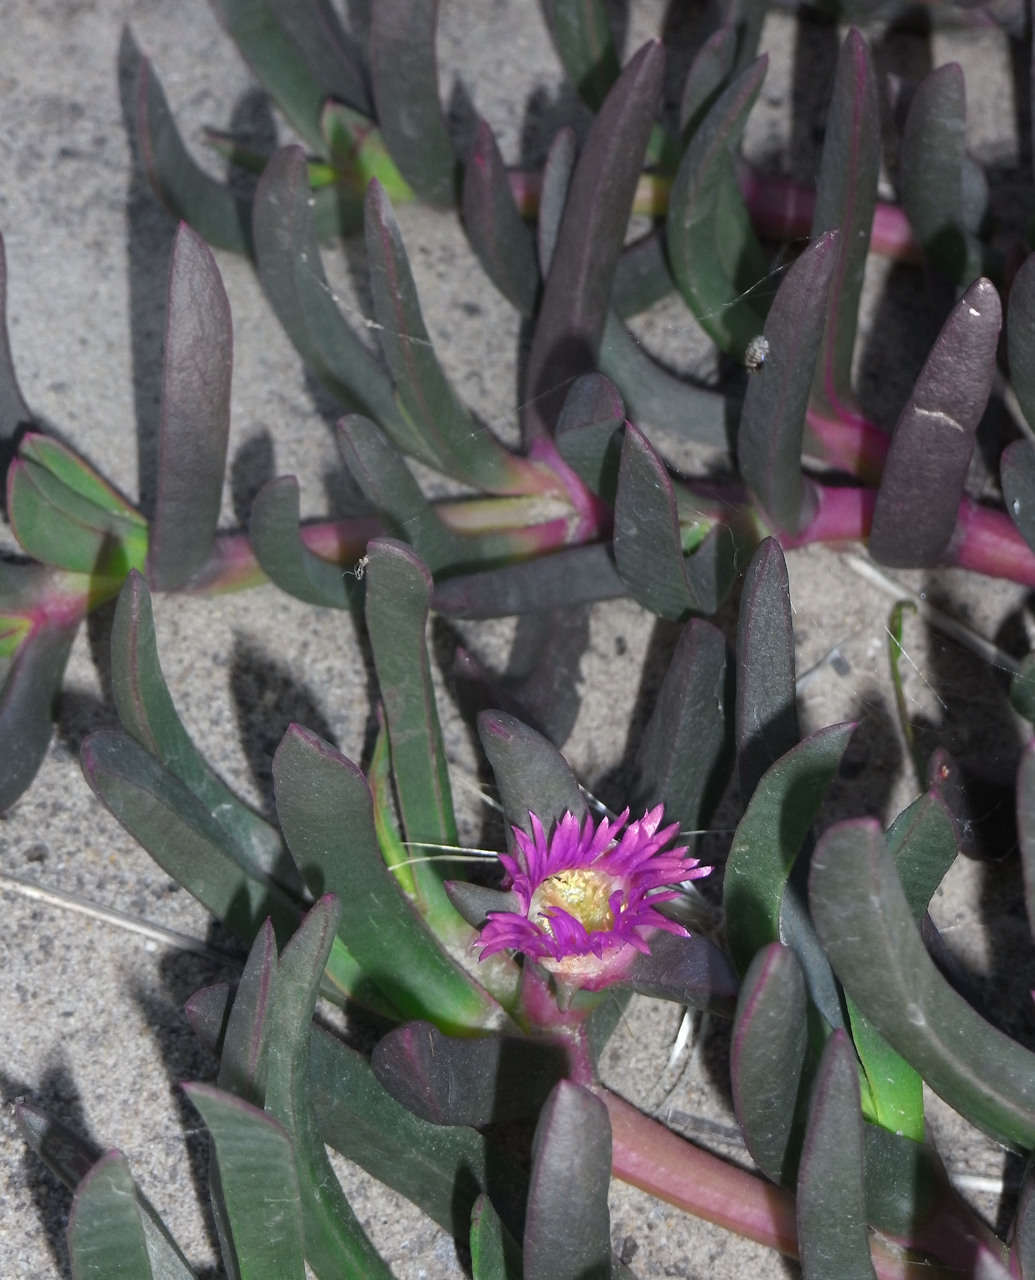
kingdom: Plantae
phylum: Tracheophyta
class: Magnoliopsida
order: Caryophyllales
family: Aizoaceae
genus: Carpobrotus
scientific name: Carpobrotus modestus
